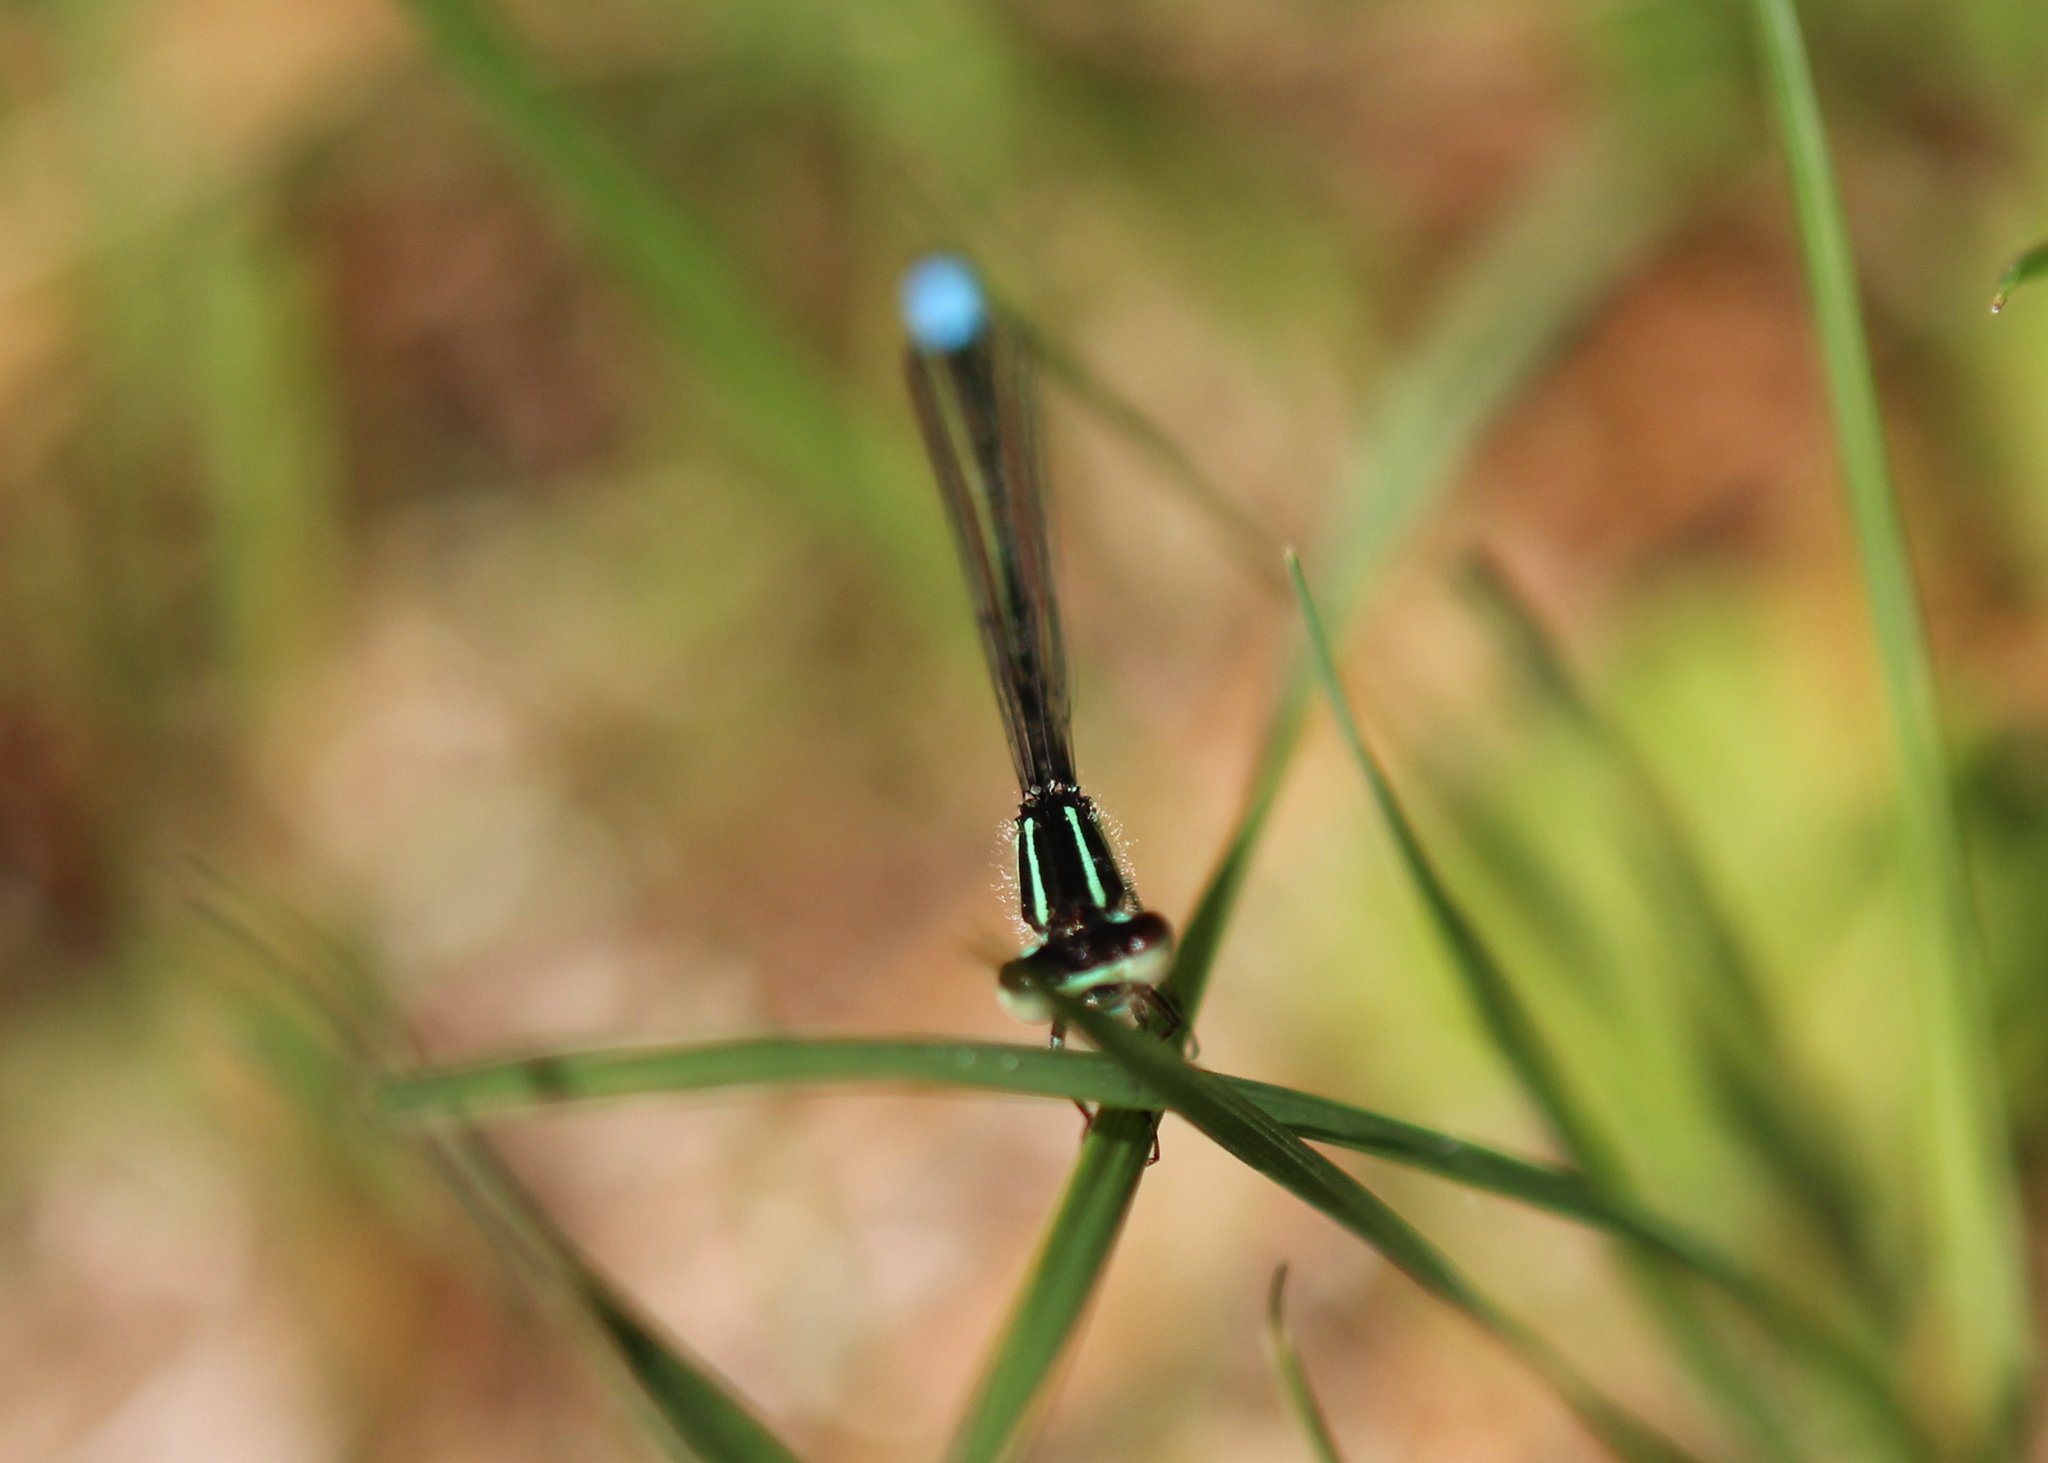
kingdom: Animalia
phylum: Arthropoda
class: Insecta
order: Odonata
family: Coenagrionidae
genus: Ischnura
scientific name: Ischnura verticalis
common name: Eastern forktail
